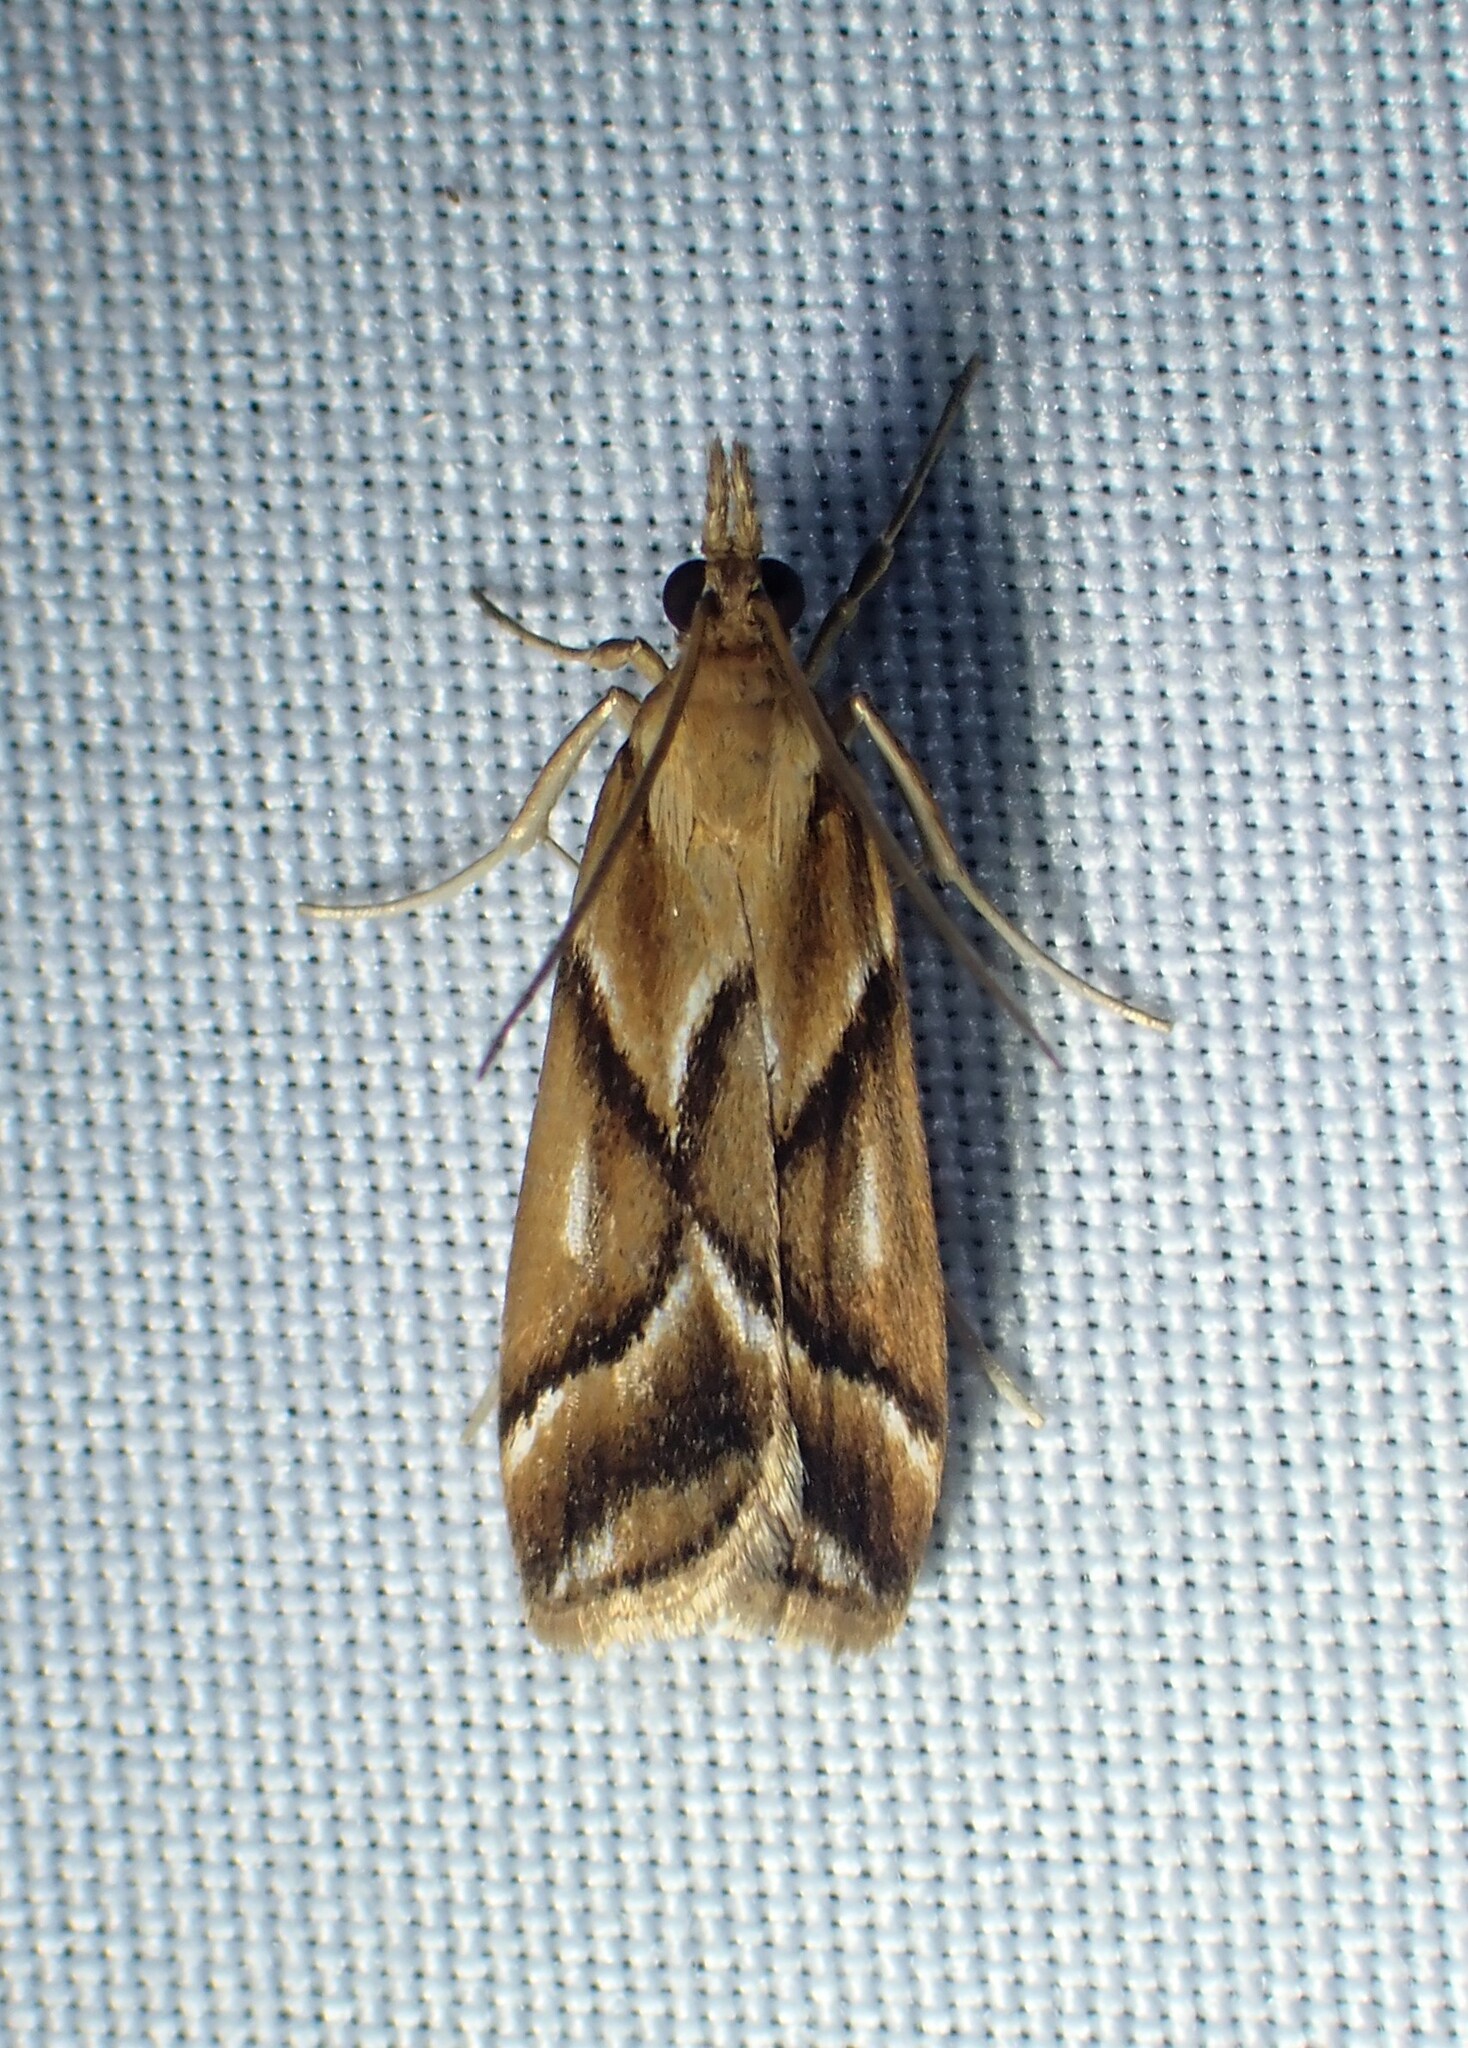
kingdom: Animalia
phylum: Arthropoda
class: Insecta
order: Lepidoptera
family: Crambidae
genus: Eudonia
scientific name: Eudonia luteusalis
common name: Moth
